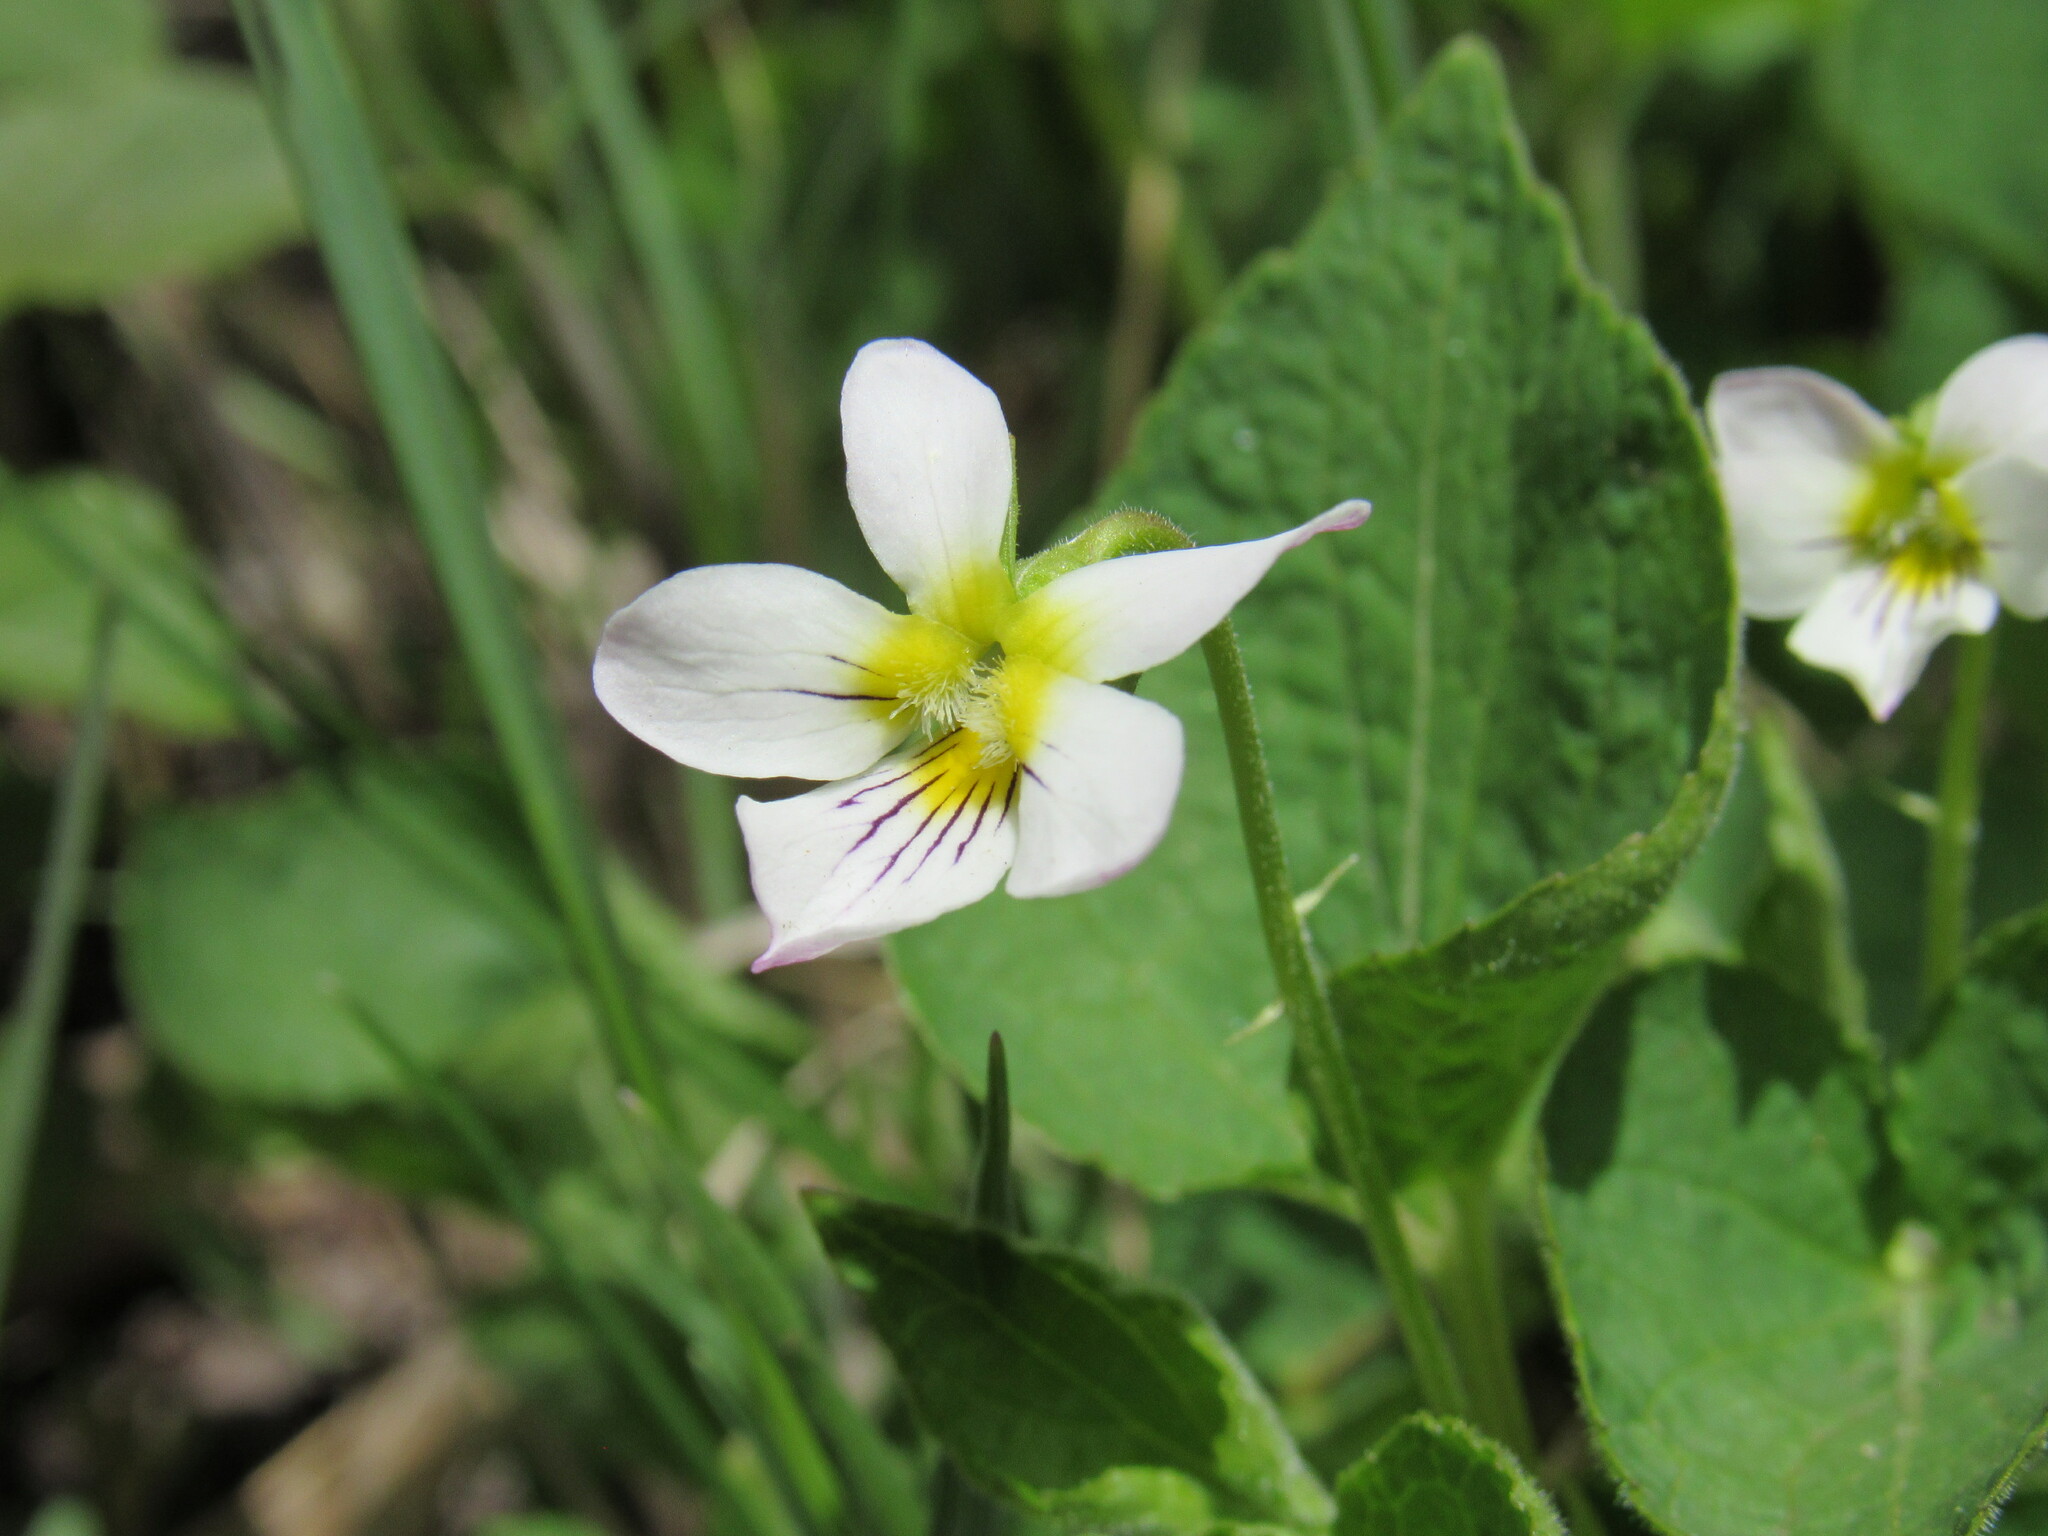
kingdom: Plantae
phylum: Tracheophyta
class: Magnoliopsida
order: Malpighiales
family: Violaceae
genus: Viola
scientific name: Viola canadensis
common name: Canada violet
